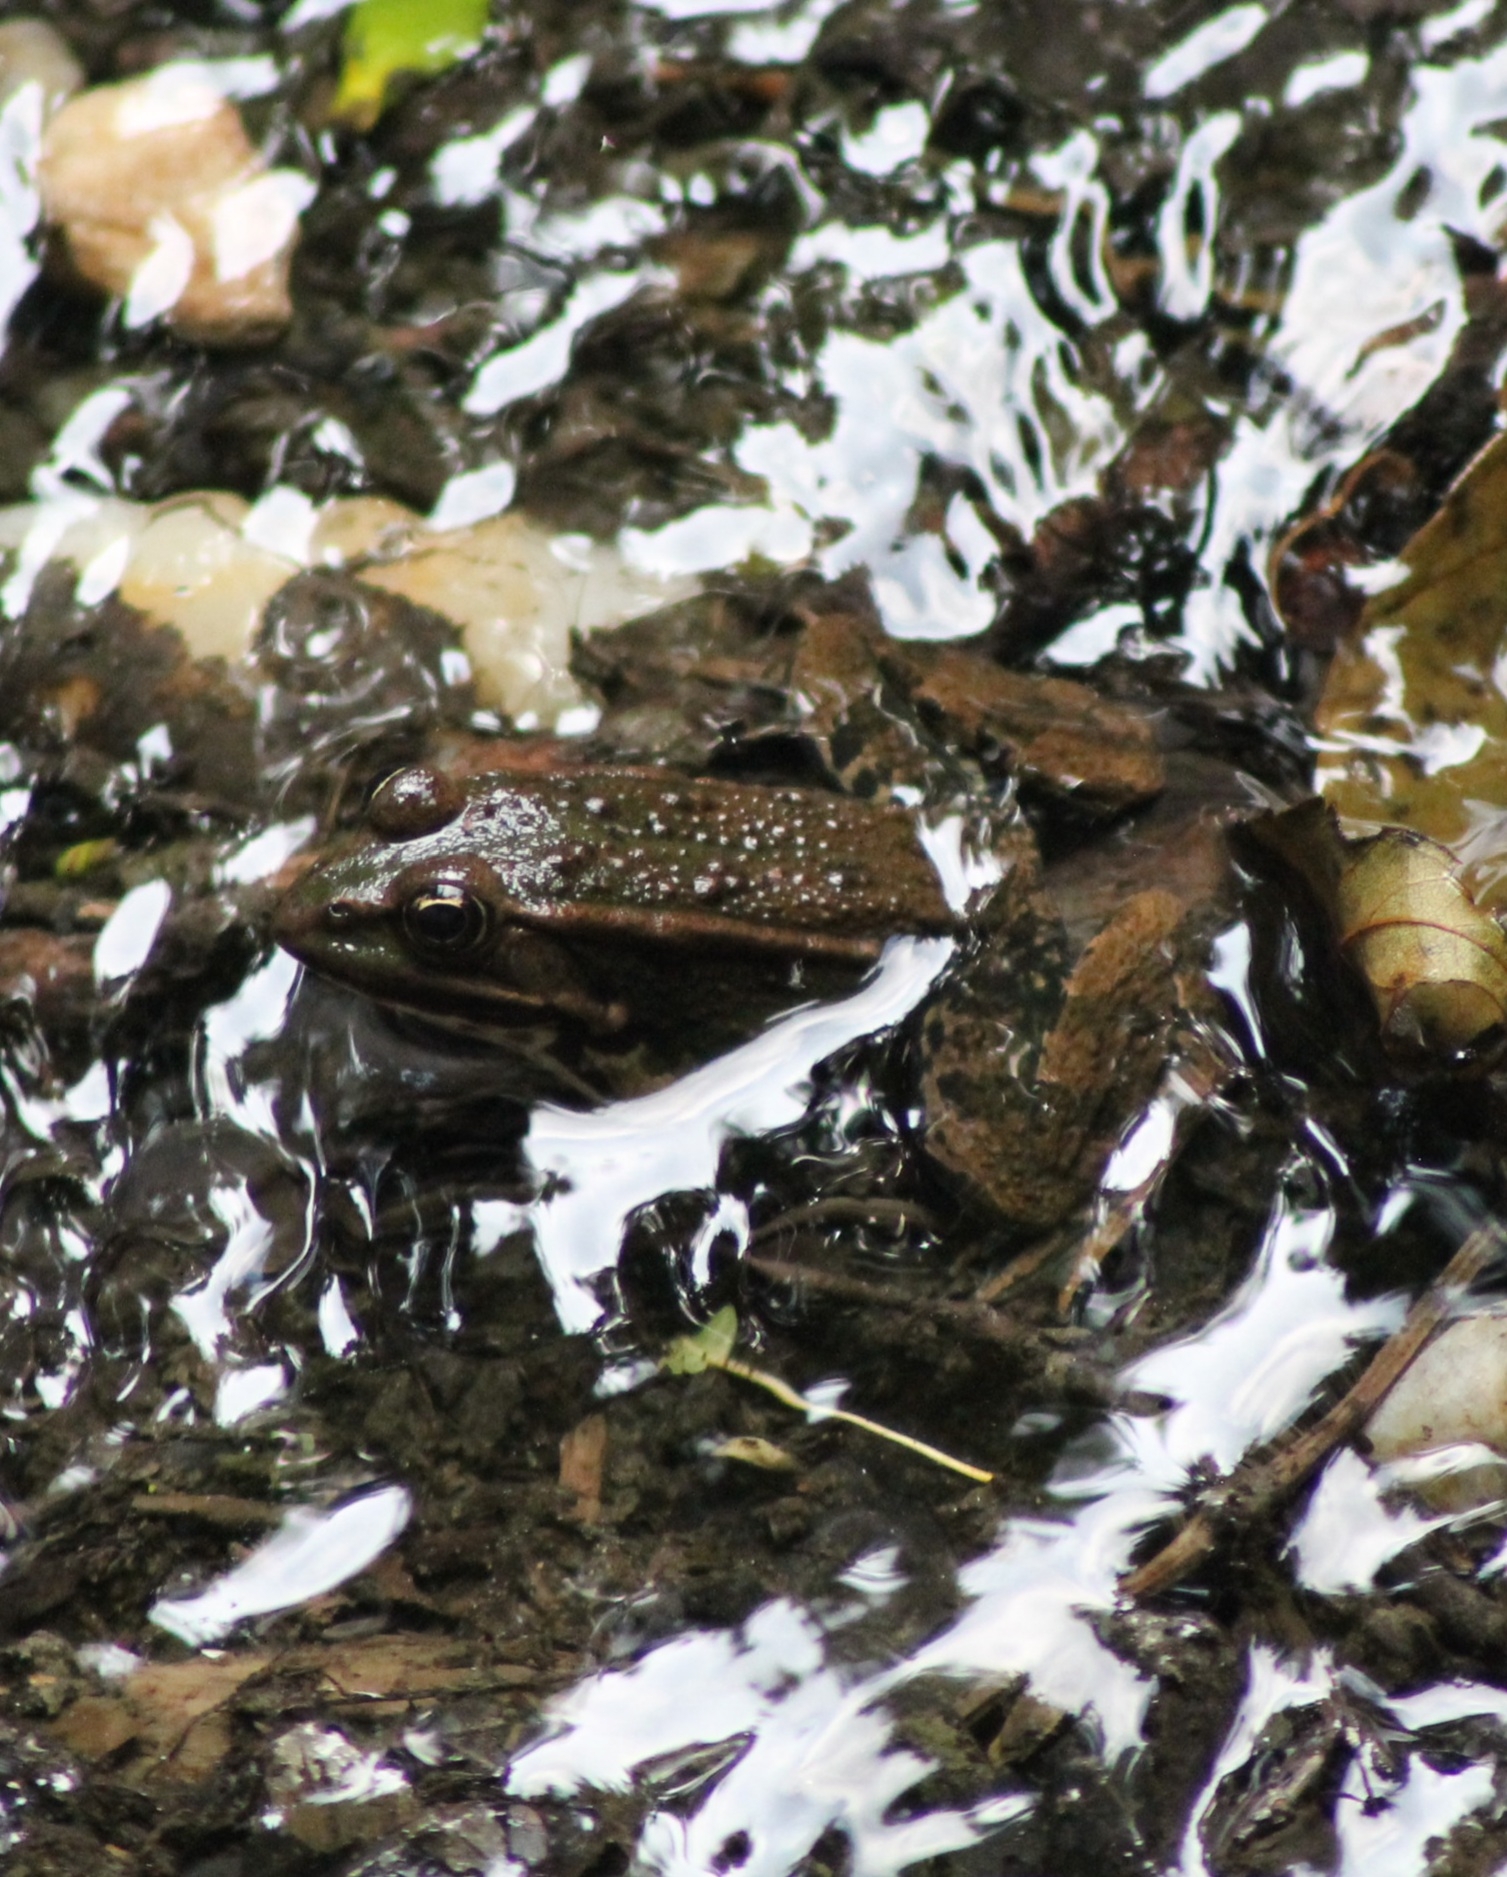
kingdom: Animalia
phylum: Chordata
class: Amphibia
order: Anura
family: Ranidae
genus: Pelophylax
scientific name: Pelophylax
